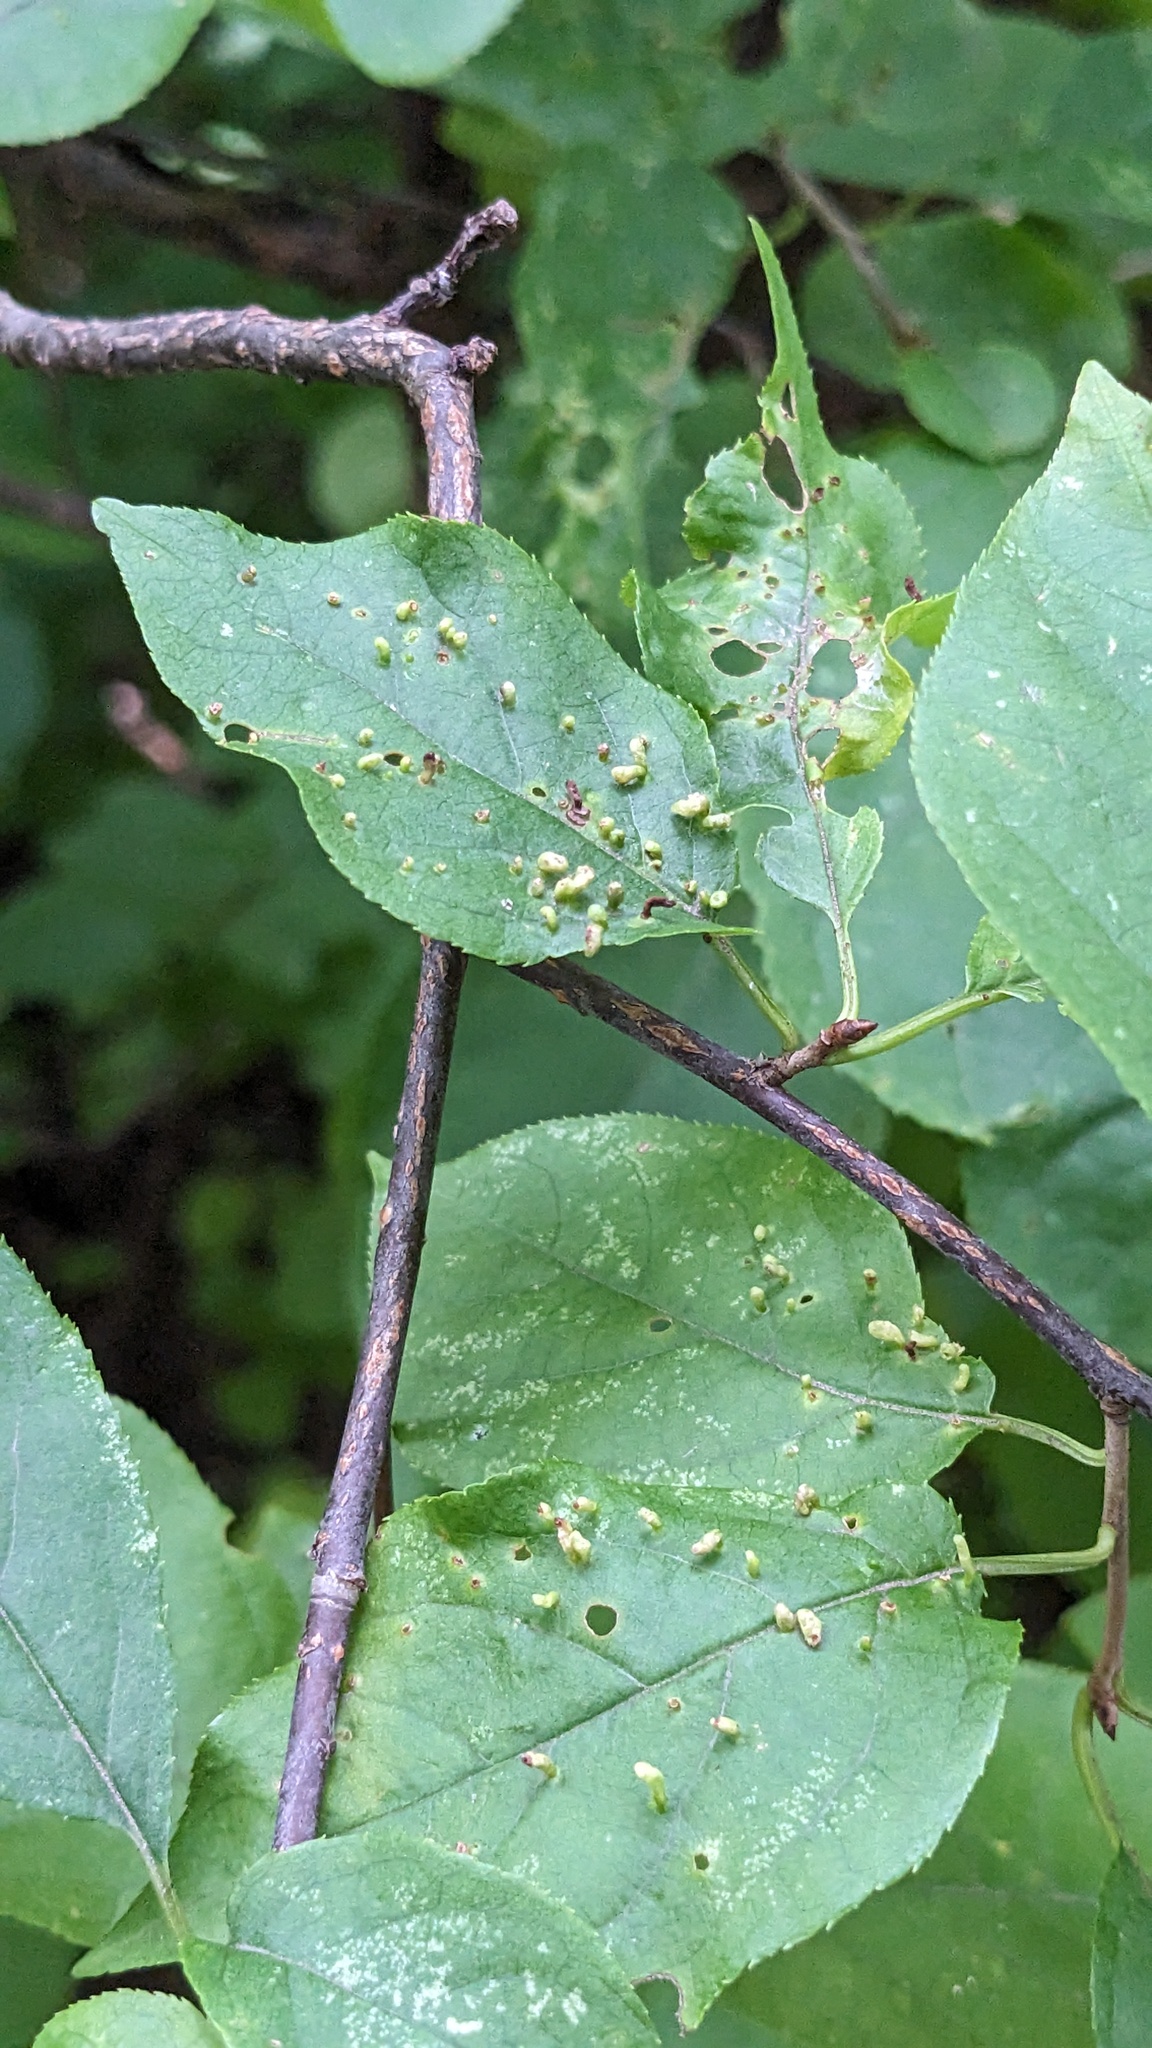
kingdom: Animalia
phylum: Arthropoda
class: Arachnida
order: Trombidiformes
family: Eriophyidae
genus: Eriophyes
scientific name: Eriophyes emarginatae
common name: Plum leaf gall mite
